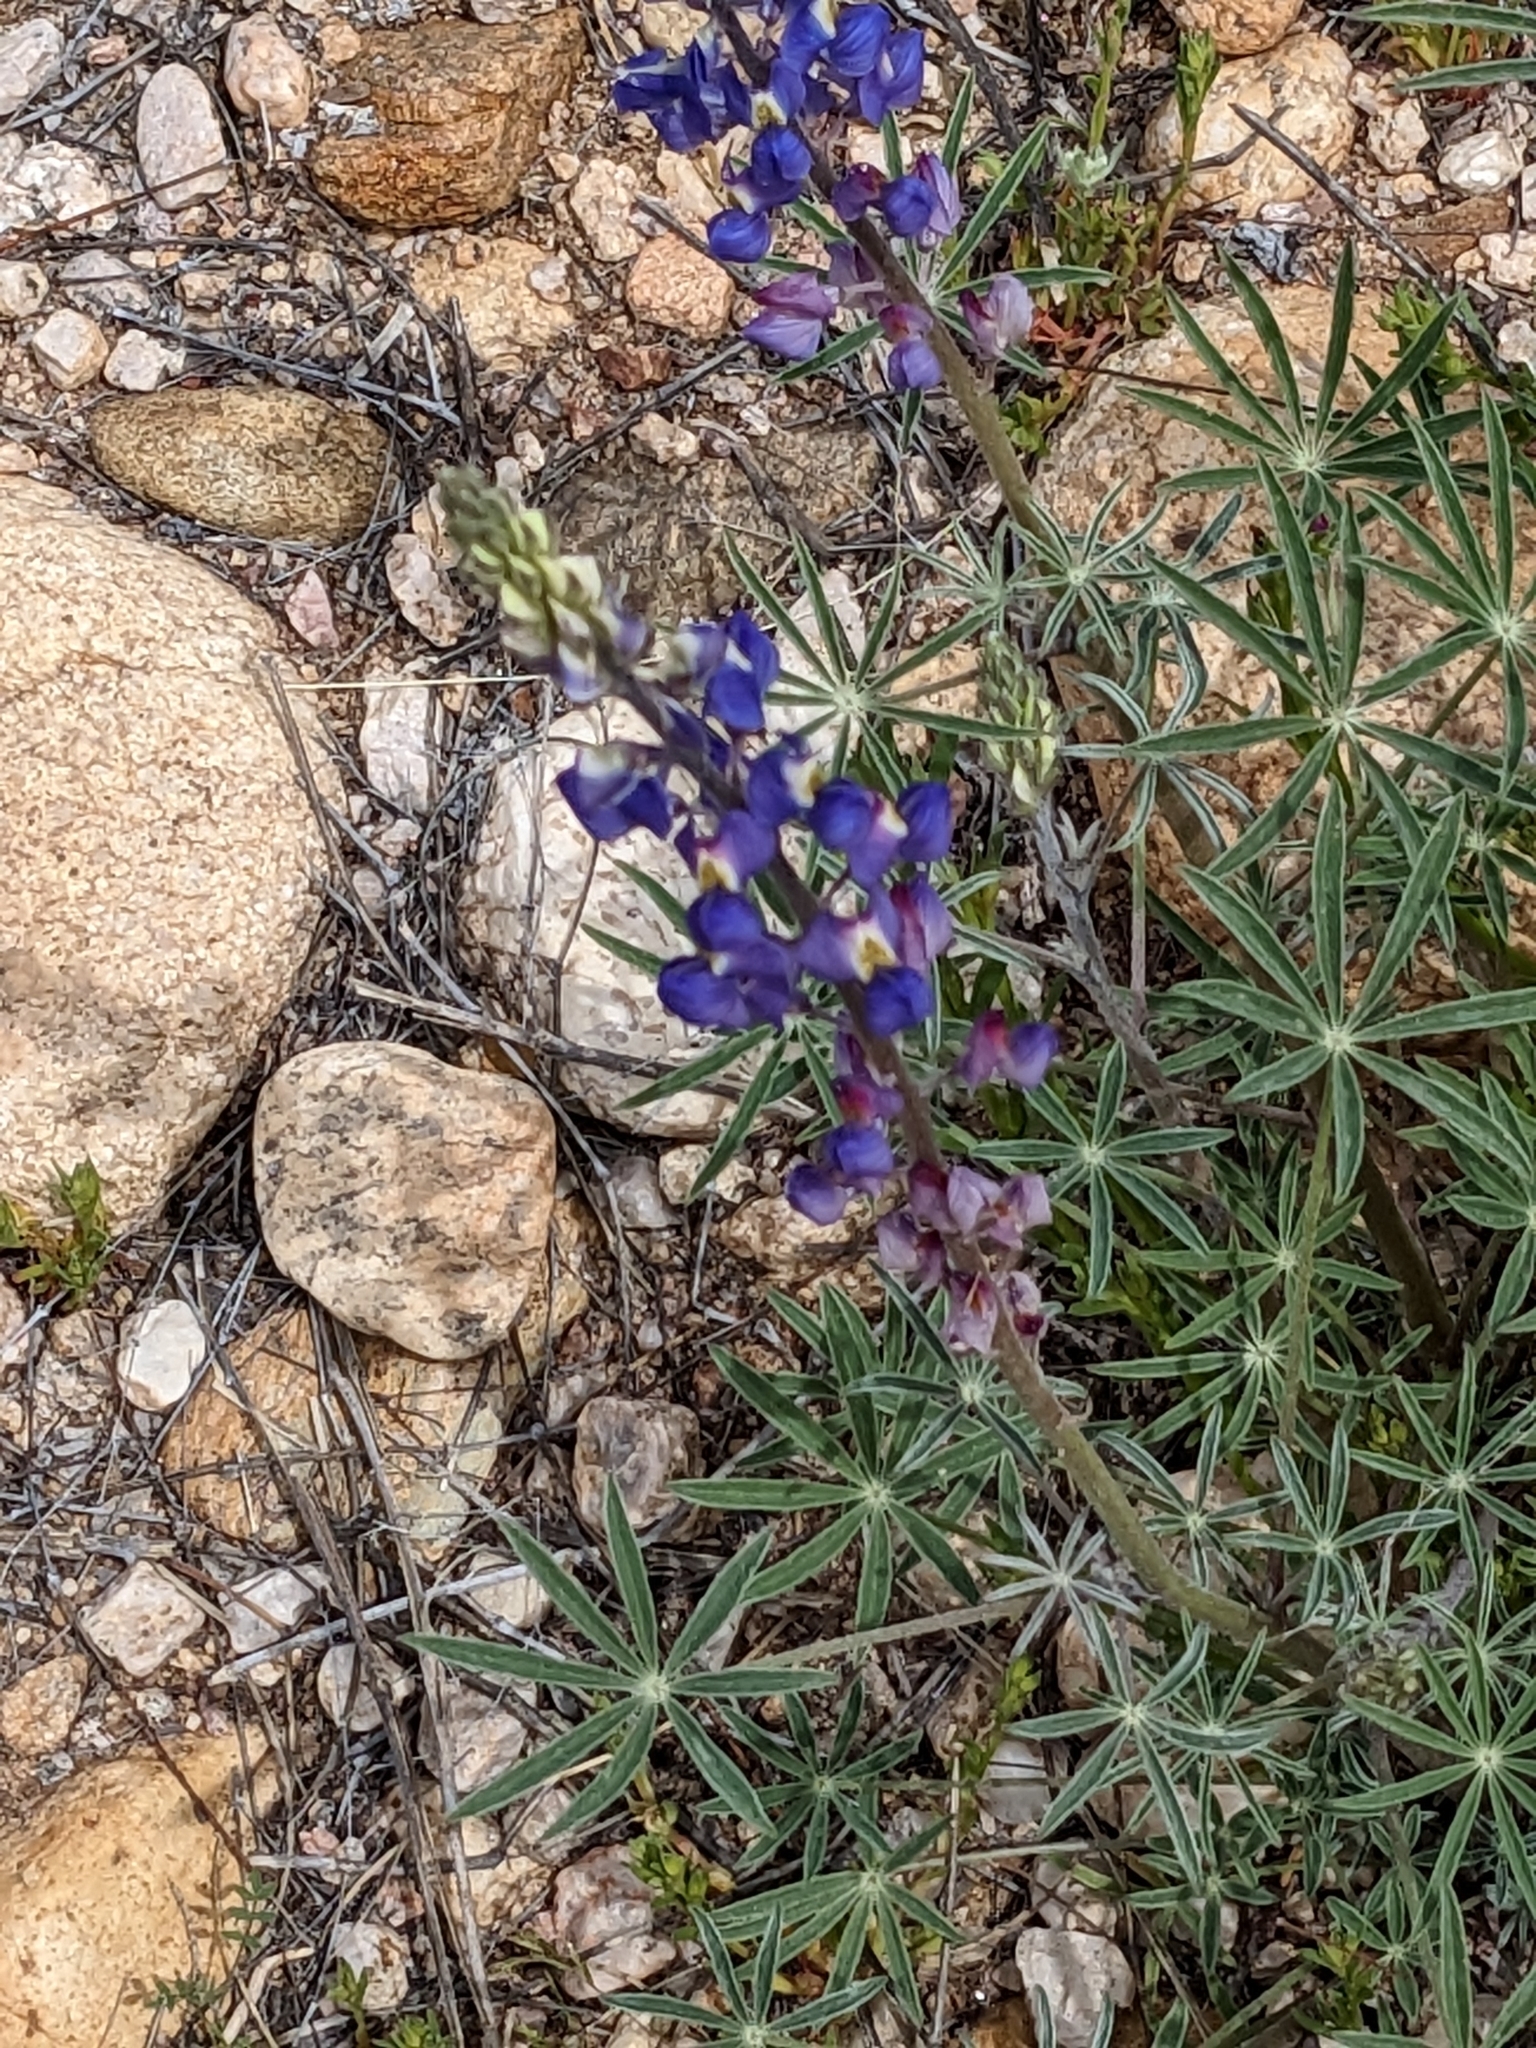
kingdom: Plantae
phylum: Tracheophyta
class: Magnoliopsida
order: Fabales
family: Fabaceae
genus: Lupinus
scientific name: Lupinus sparsiflorus
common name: Coulter's lupine
